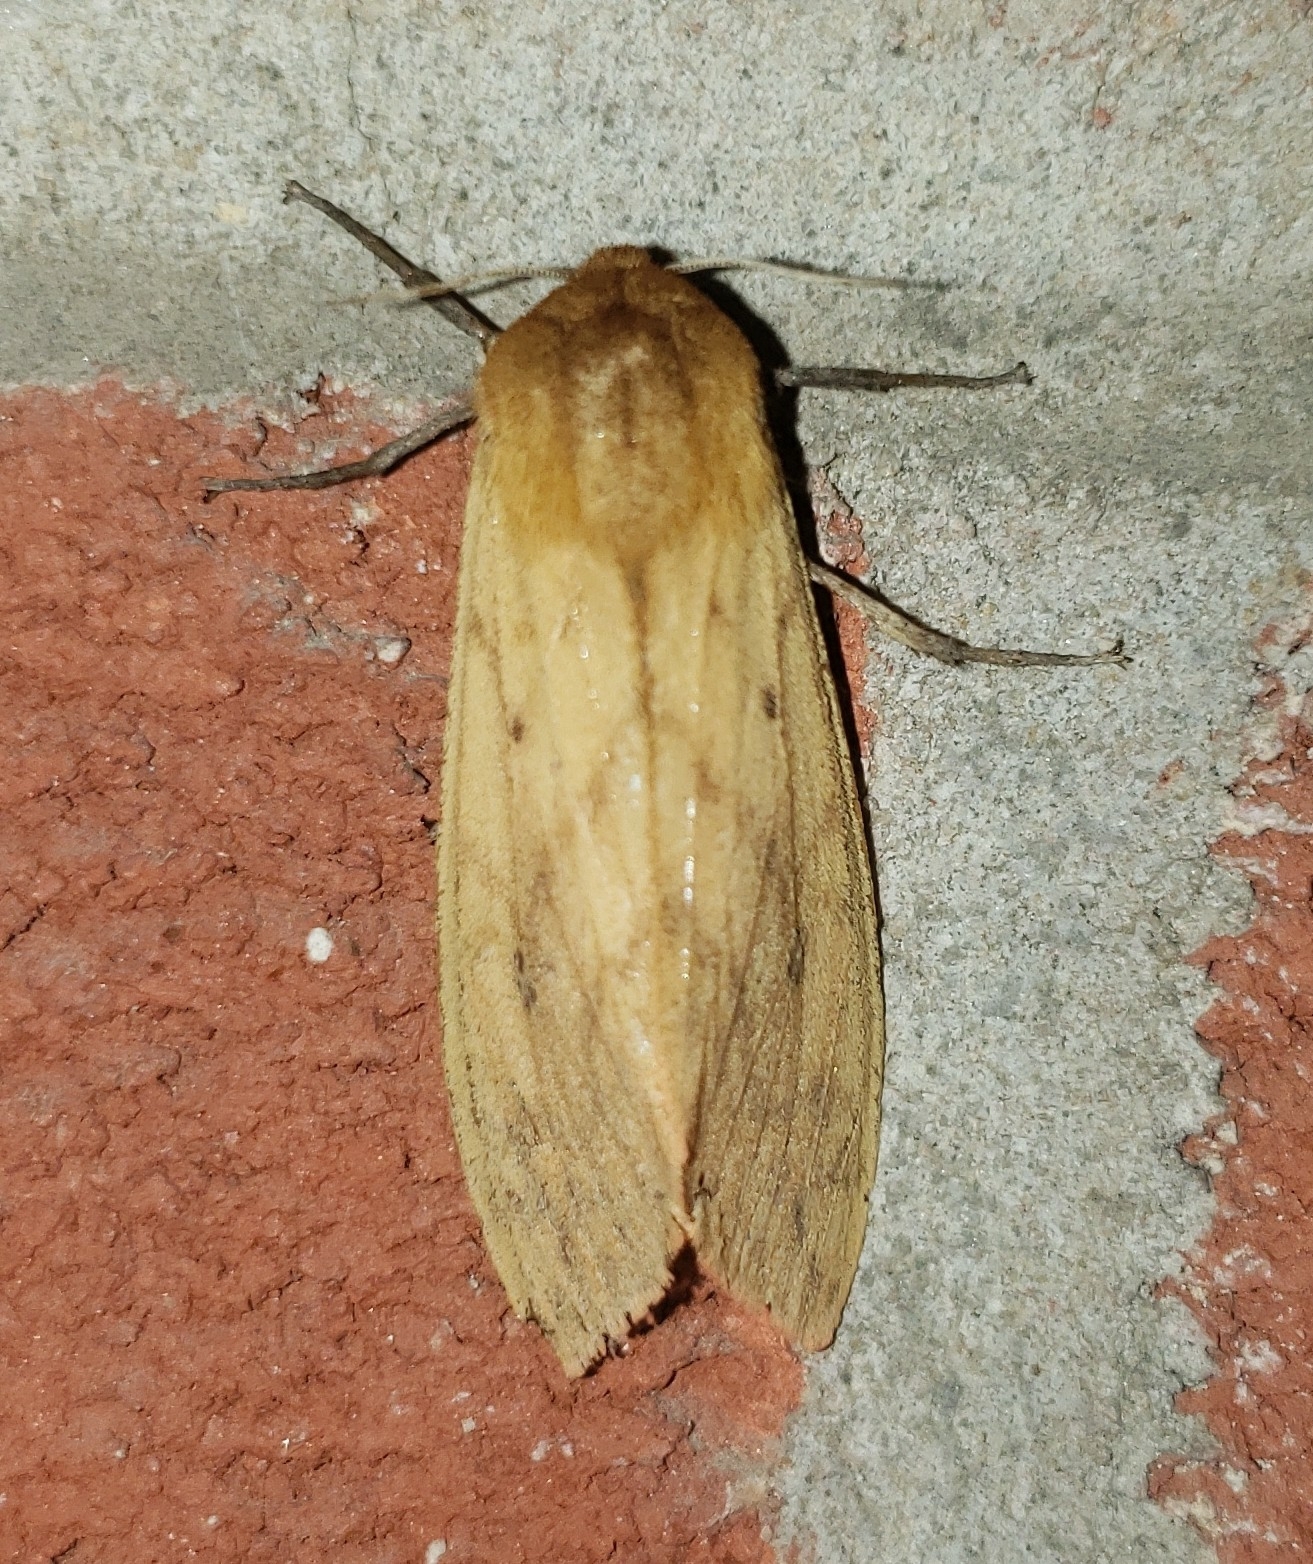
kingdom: Animalia
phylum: Arthropoda
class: Insecta
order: Lepidoptera
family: Erebidae
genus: Pyrrharctia
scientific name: Pyrrharctia isabella
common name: Isabella tiger moth
